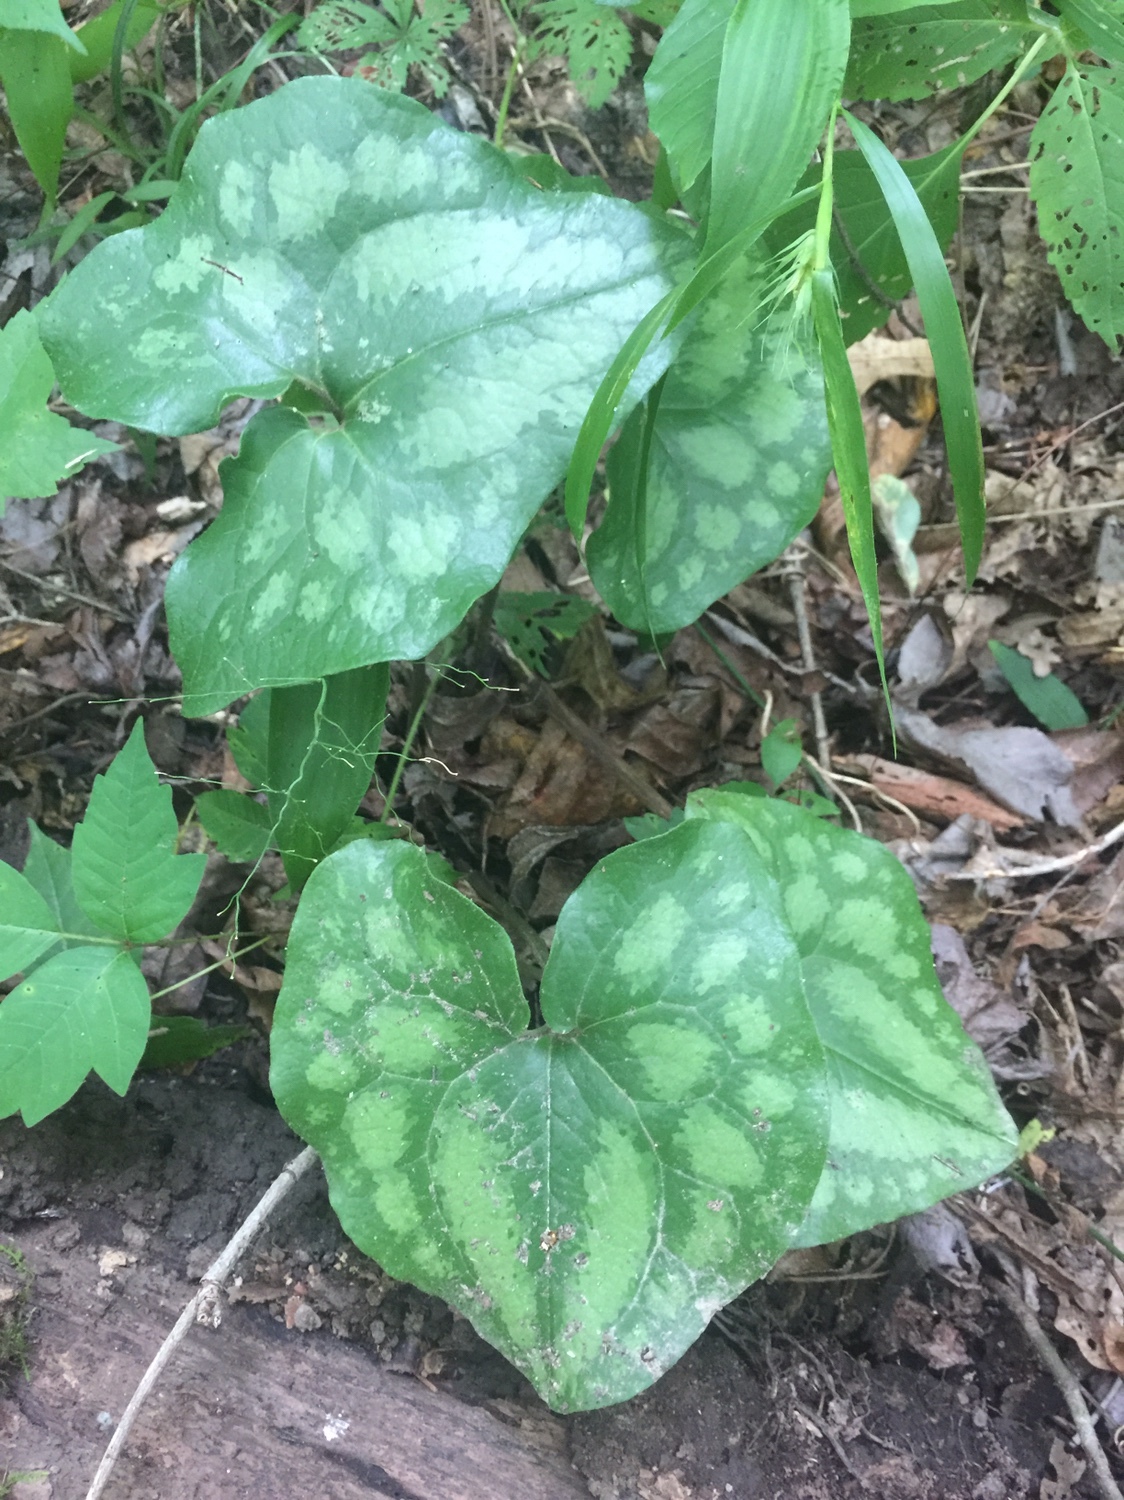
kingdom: Plantae
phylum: Tracheophyta
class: Magnoliopsida
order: Piperales
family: Aristolochiaceae
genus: Hexastylis
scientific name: Hexastylis arifolia
